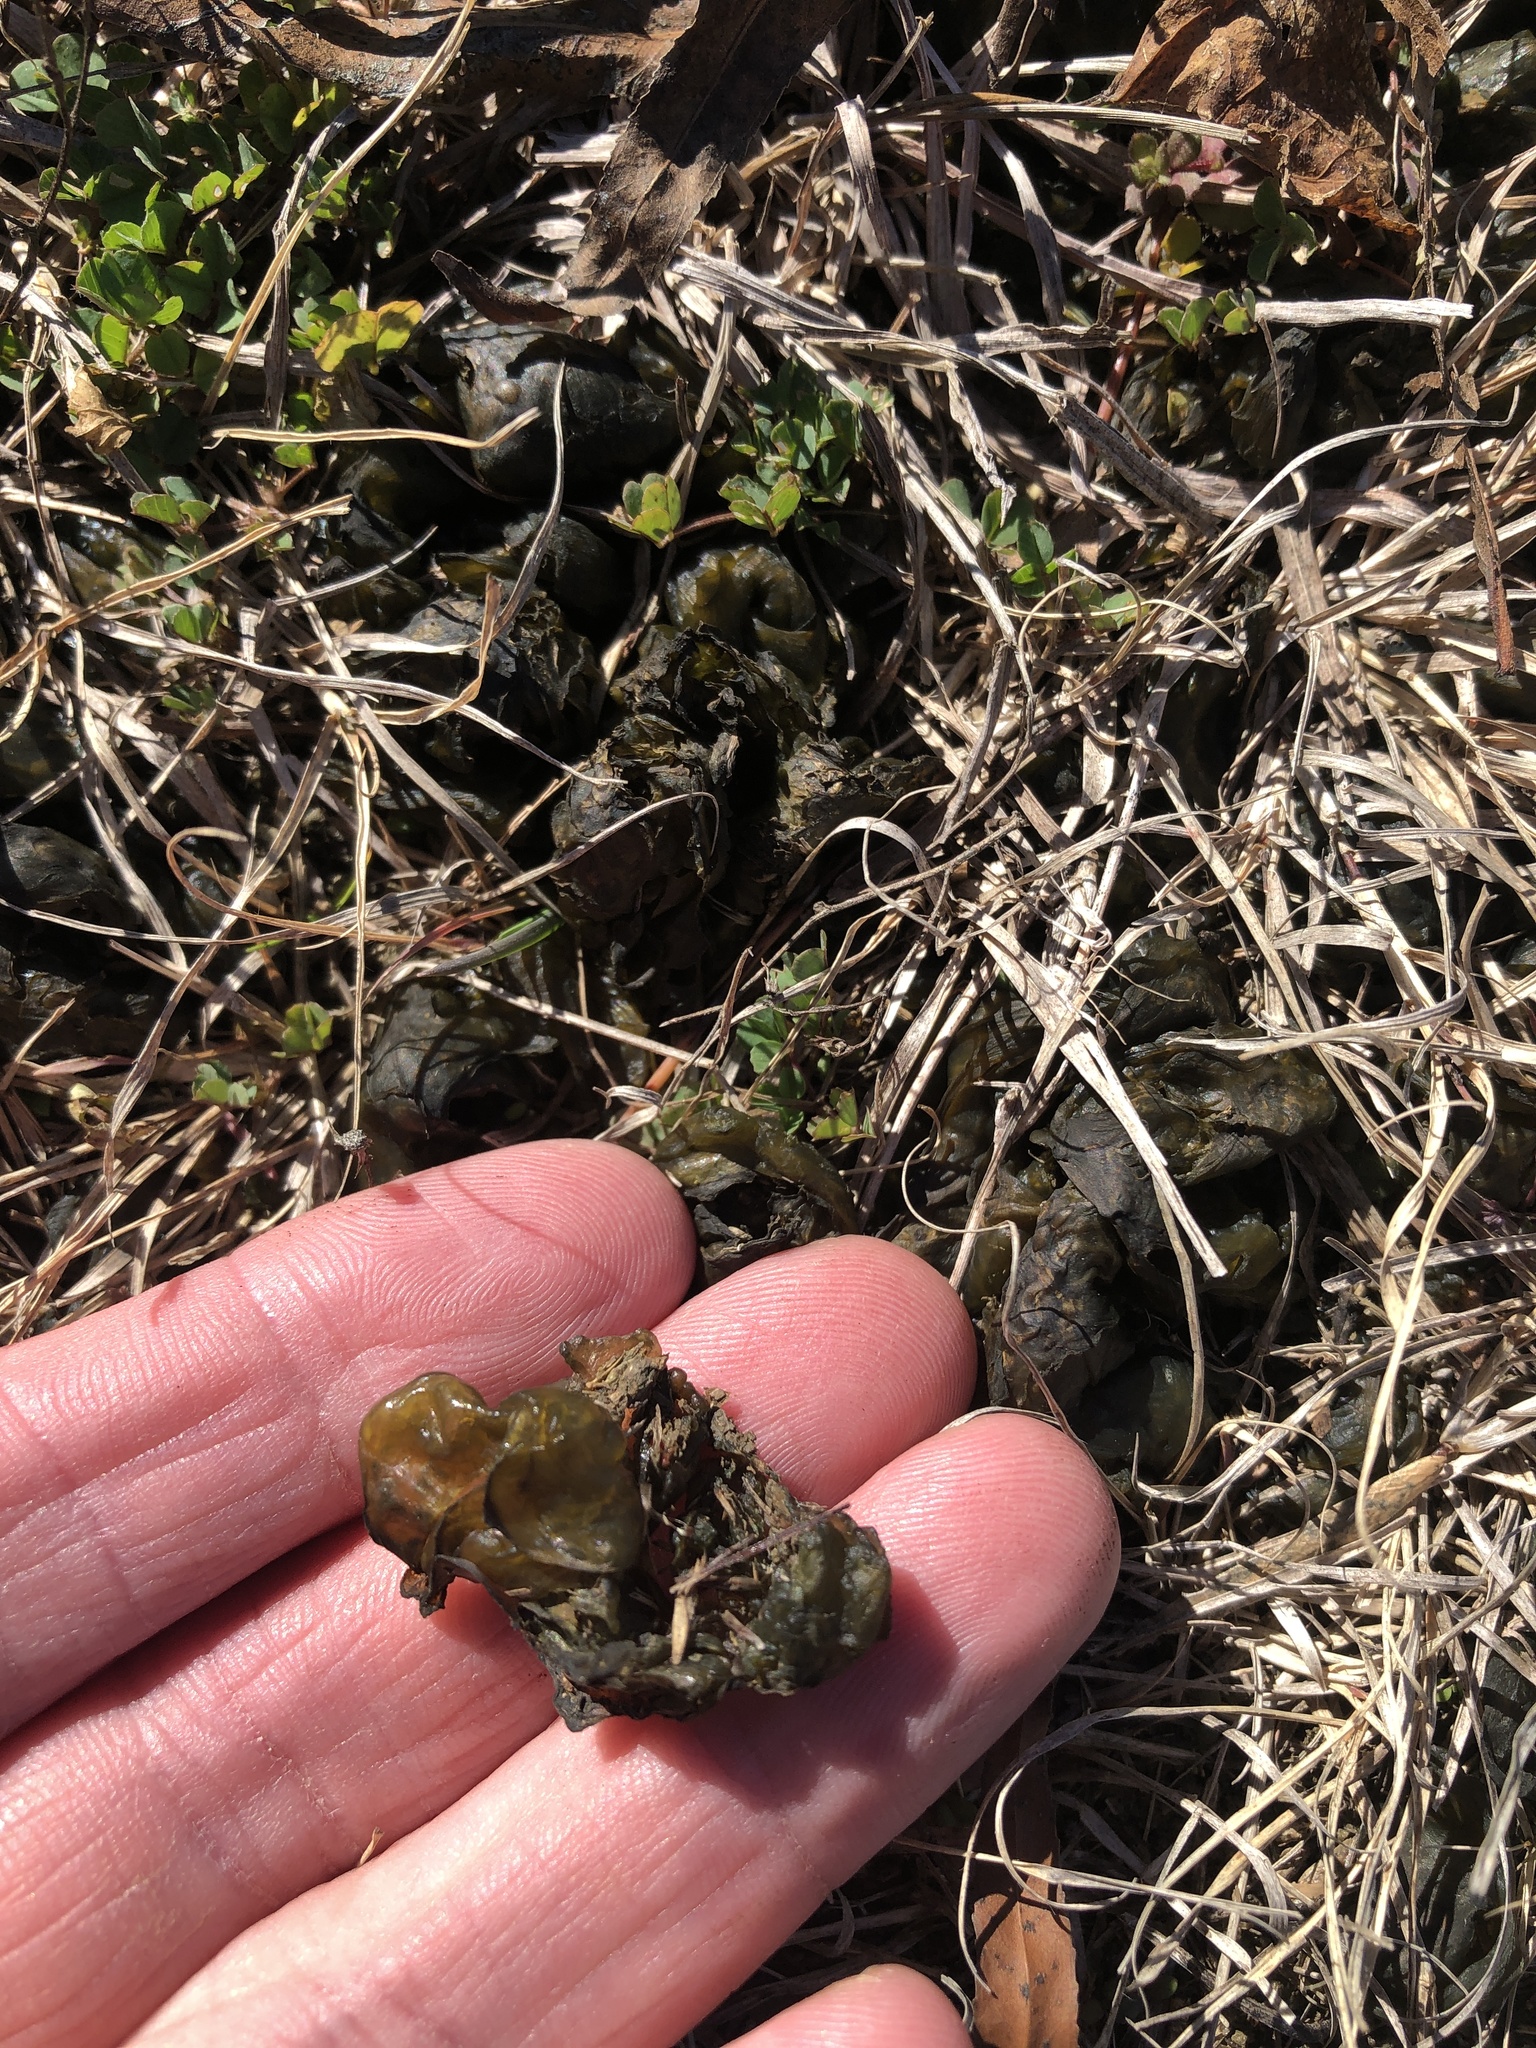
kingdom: Bacteria
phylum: Cyanobacteria
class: Cyanobacteriia
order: Cyanobacteriales
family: Nostocaceae
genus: Nostoc
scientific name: Nostoc commune
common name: Star jelly
